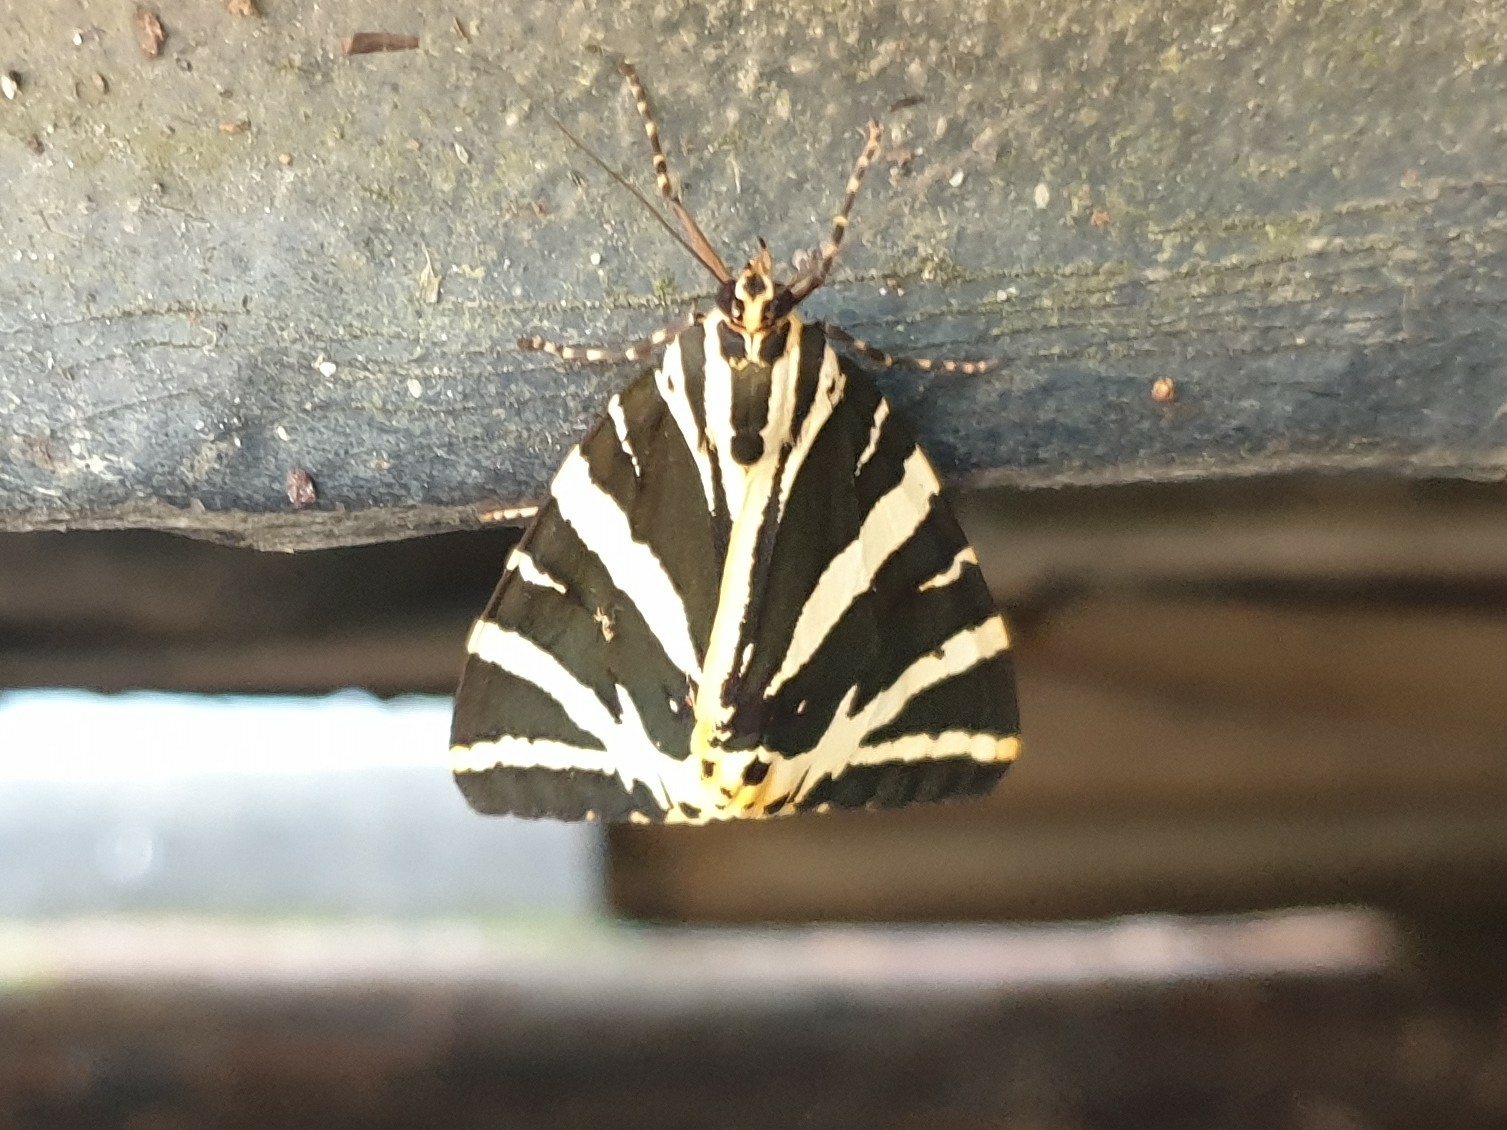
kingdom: Animalia
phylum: Arthropoda
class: Insecta
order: Lepidoptera
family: Erebidae
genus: Euplagia
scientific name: Euplagia quadripunctaria
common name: Jersey tiger
